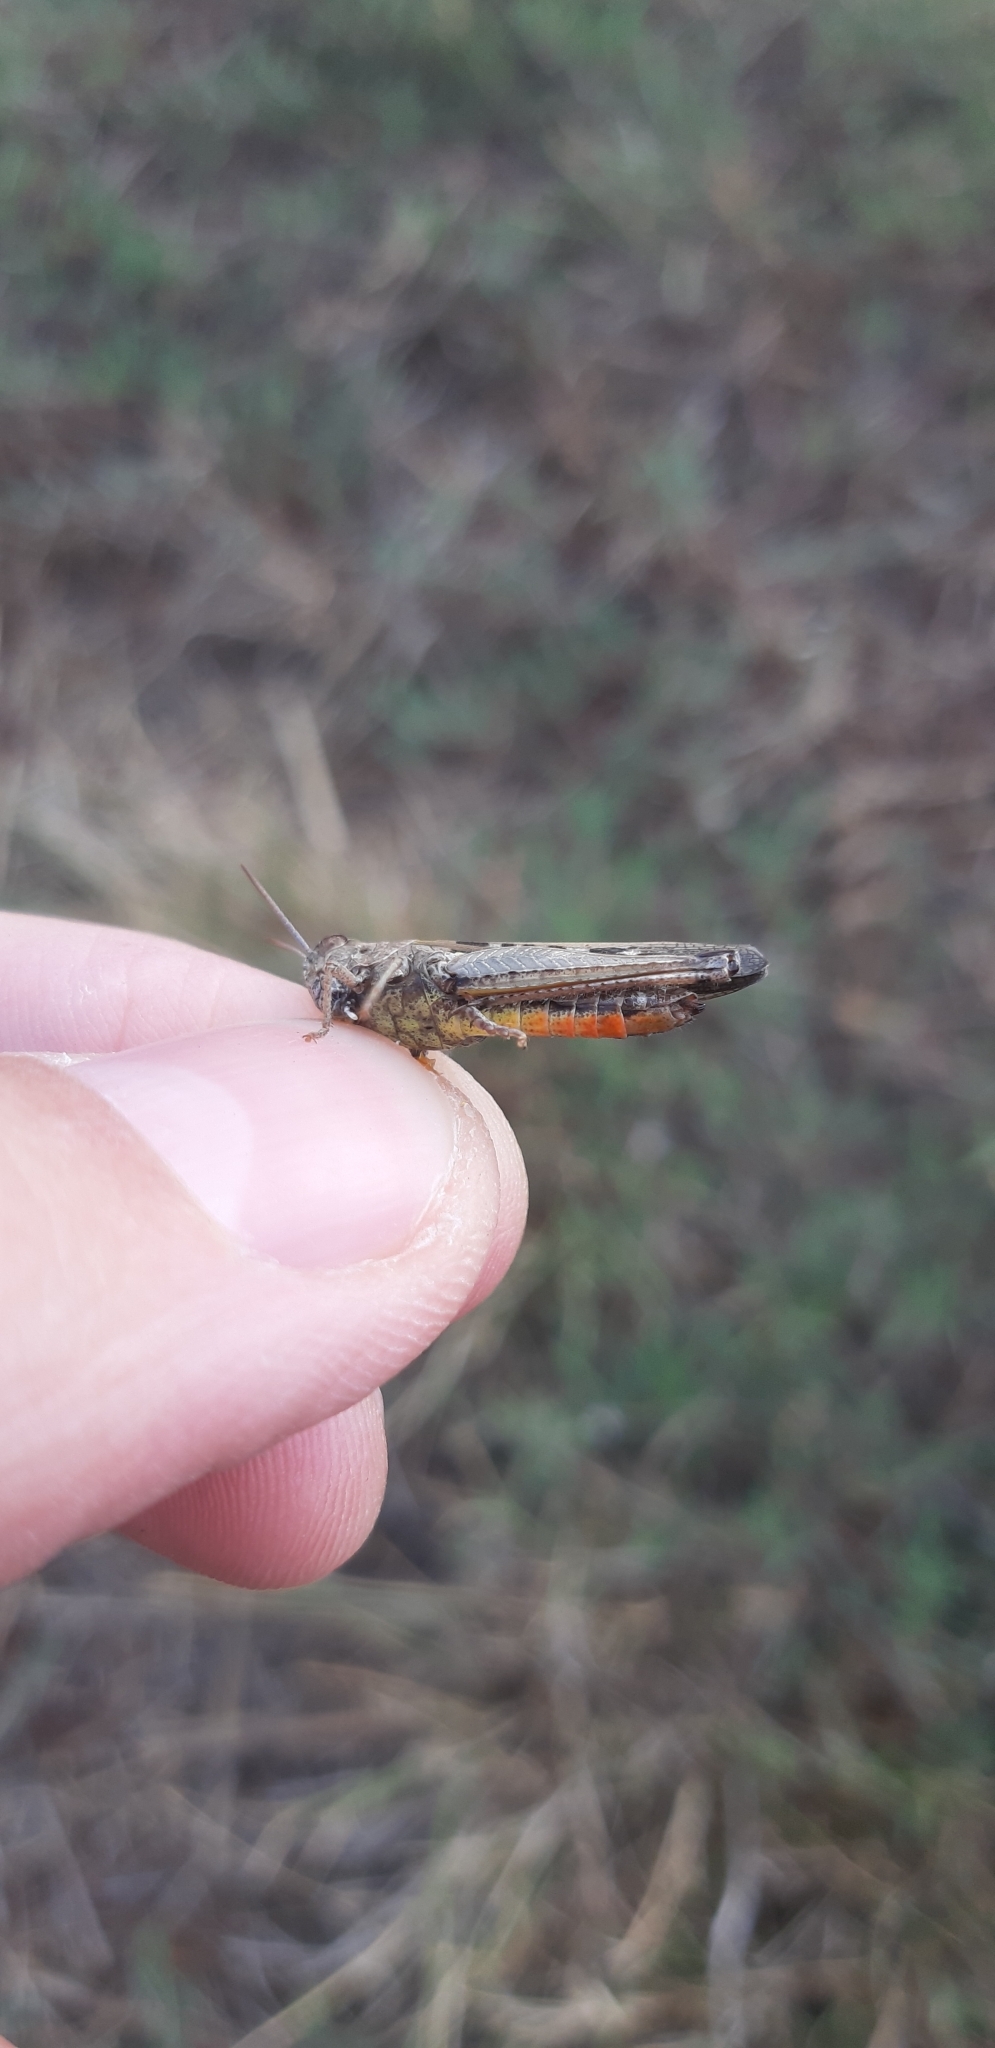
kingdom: Animalia
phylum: Arthropoda
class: Insecta
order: Orthoptera
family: Acrididae
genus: Omocestus
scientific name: Omocestus rufipes
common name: Woodland grasshopper
